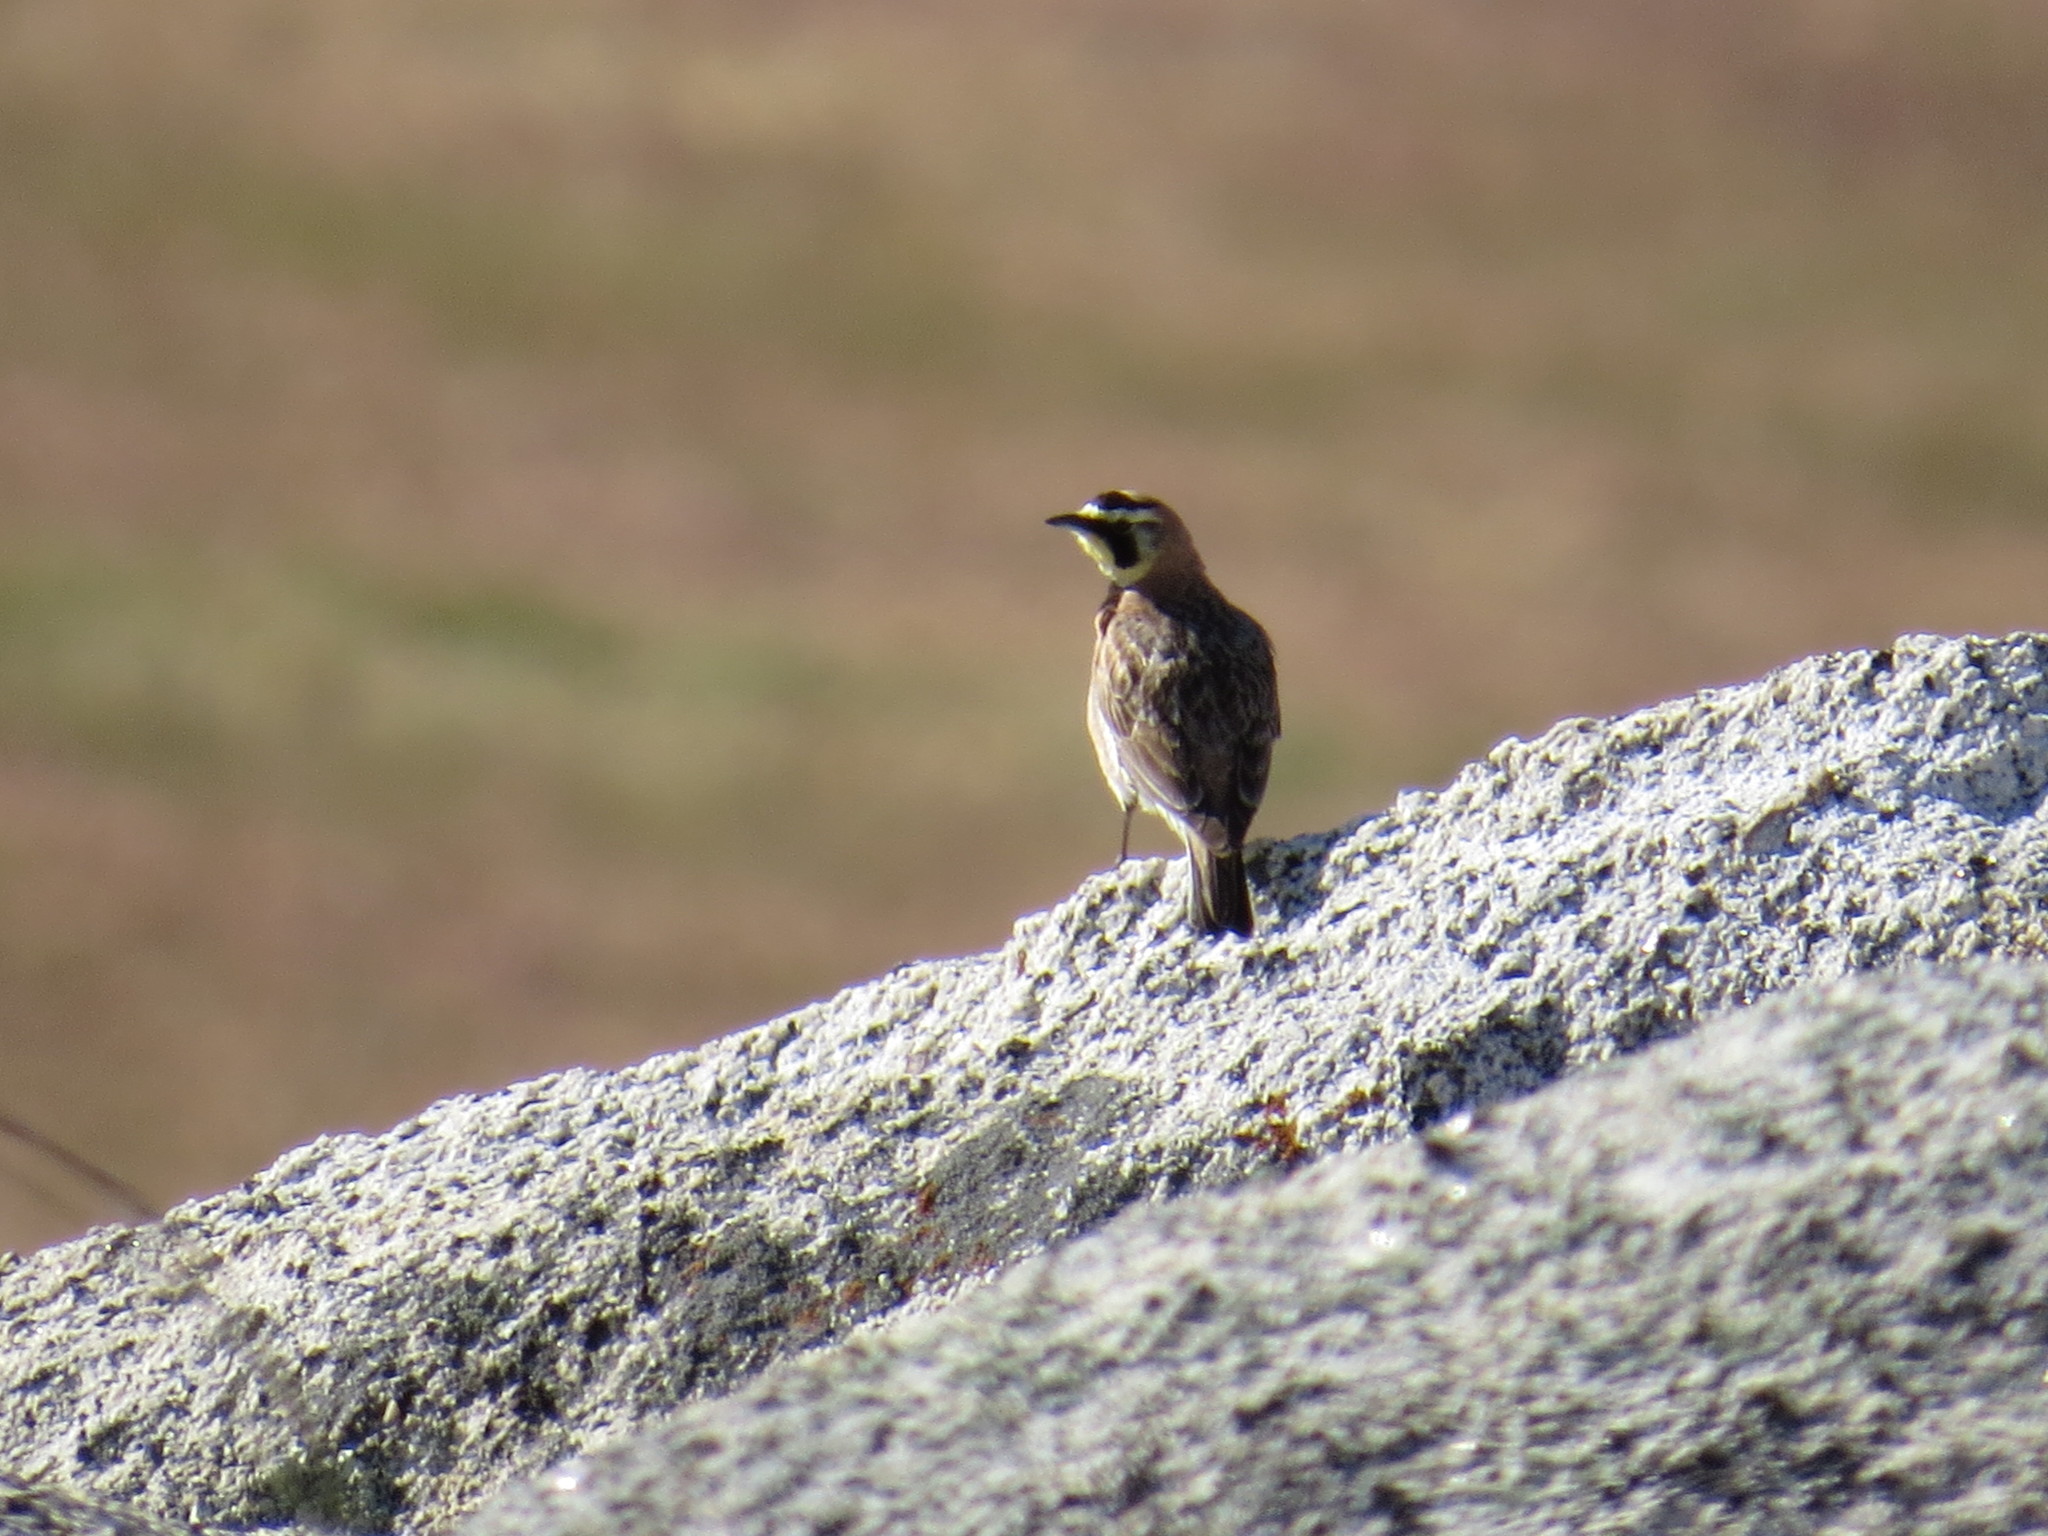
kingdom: Animalia
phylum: Chordata
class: Aves
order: Passeriformes
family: Alaudidae
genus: Eremophila
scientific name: Eremophila alpestris
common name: Horned lark
